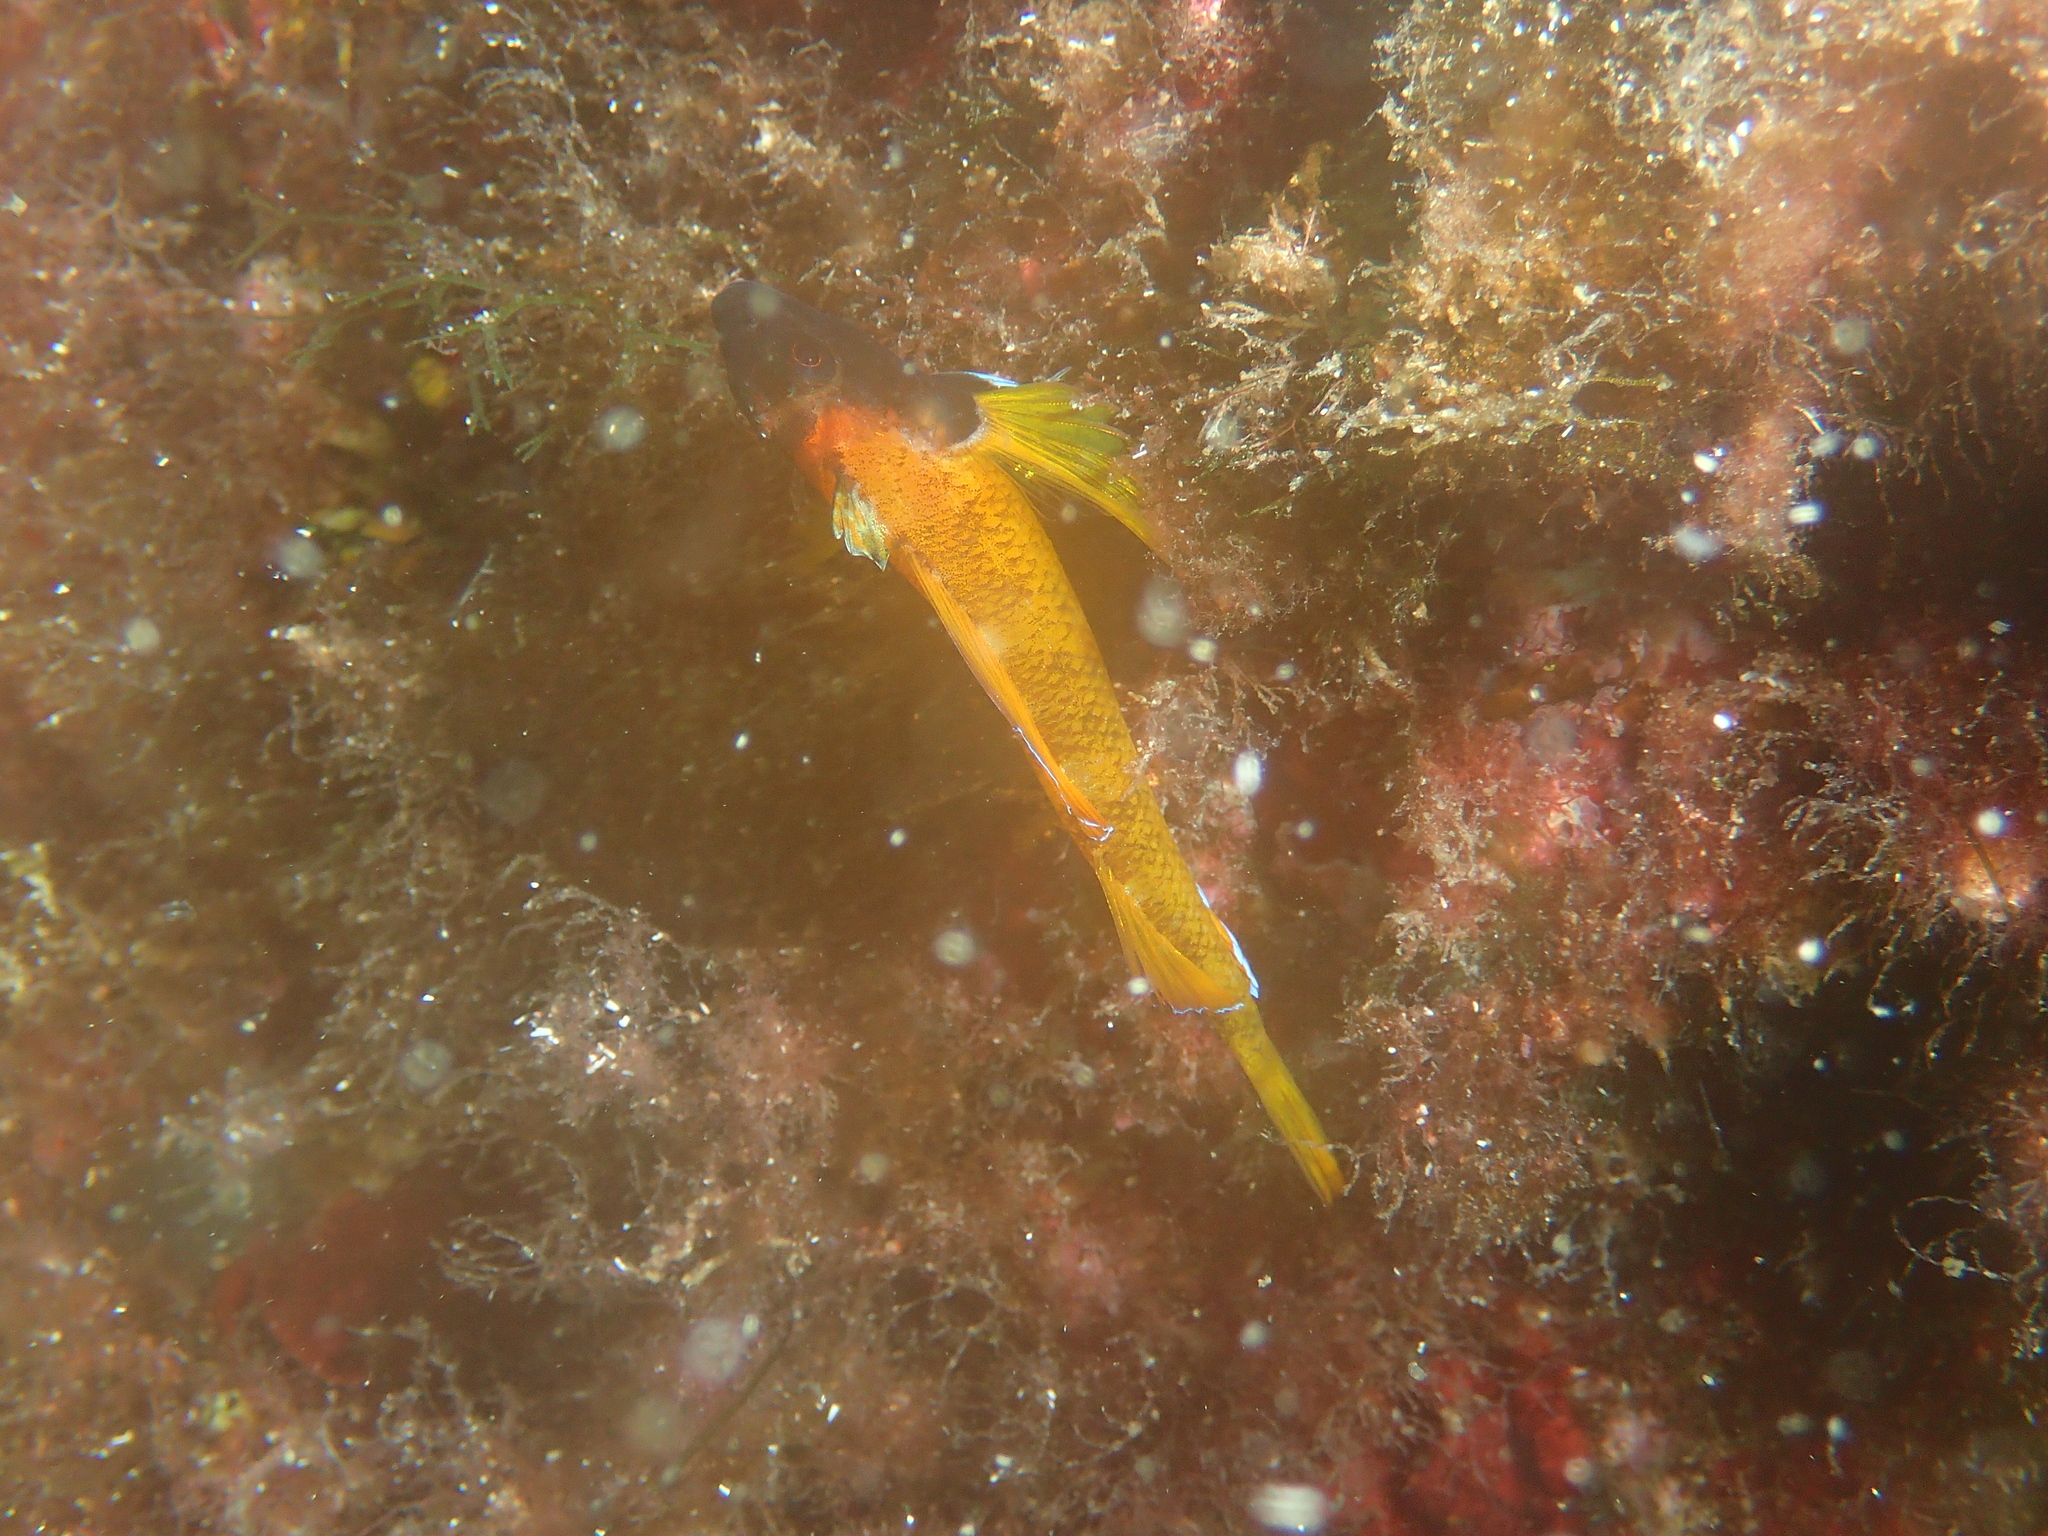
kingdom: Animalia
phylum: Chordata
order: Perciformes
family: Tripterygiidae
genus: Tripterygion
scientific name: Tripterygion delaisi
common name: Black-face blenny
